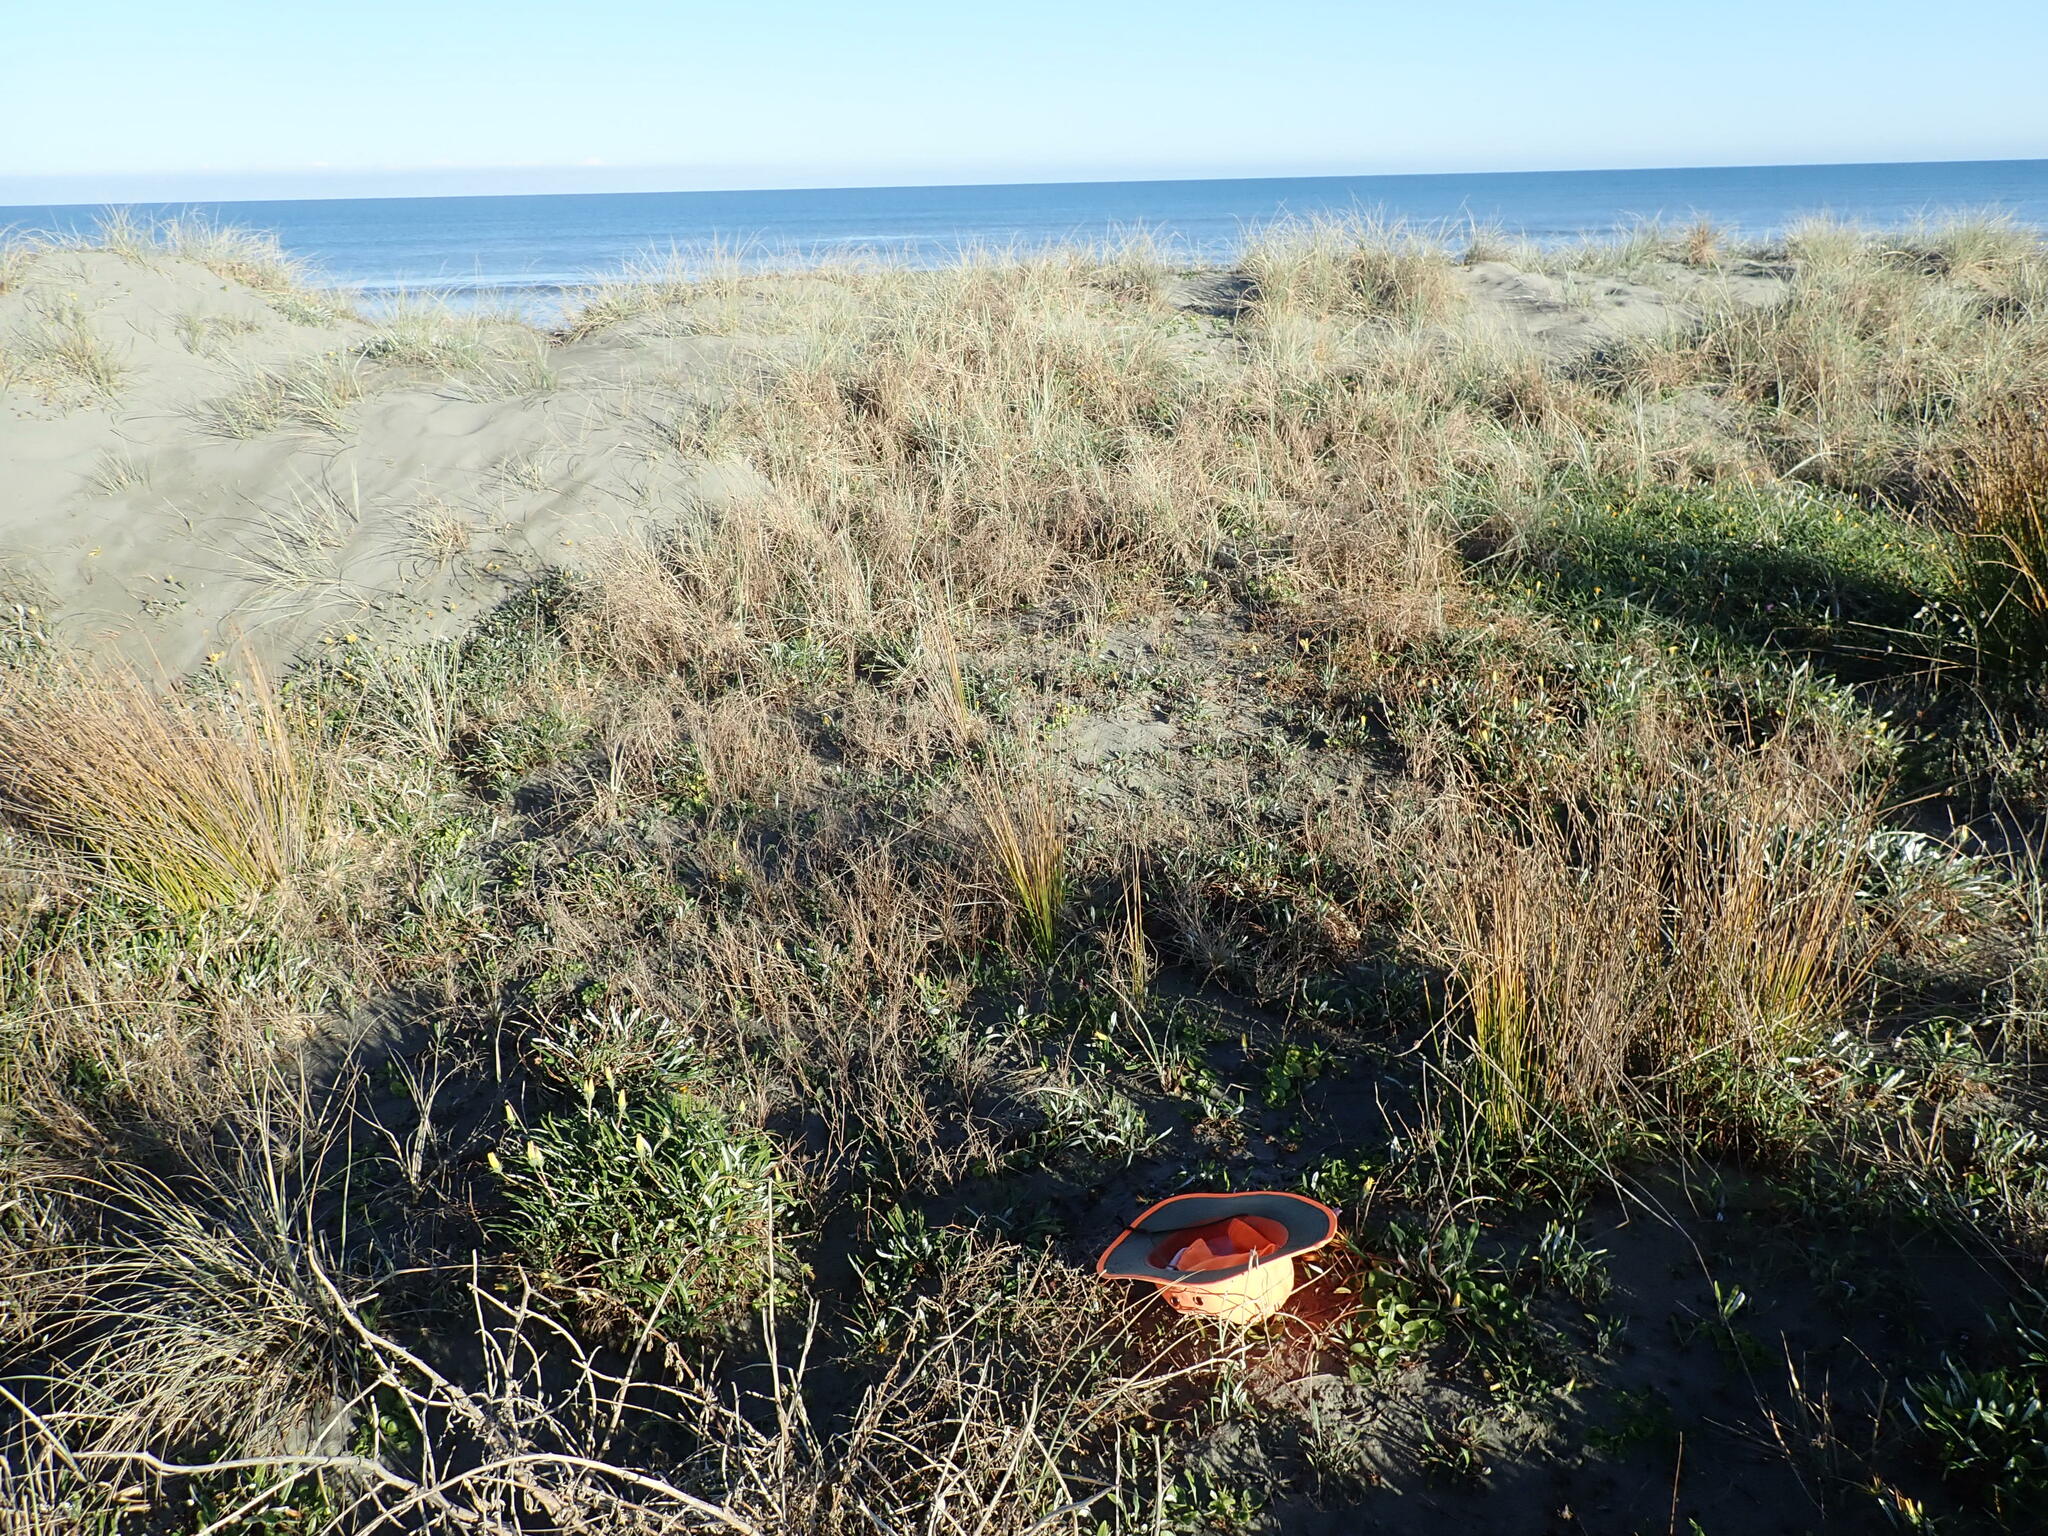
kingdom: Plantae
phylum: Tracheophyta
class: Magnoliopsida
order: Solanales
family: Convolvulaceae
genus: Calystegia
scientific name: Calystegia soldanella
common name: Sea bindweed
